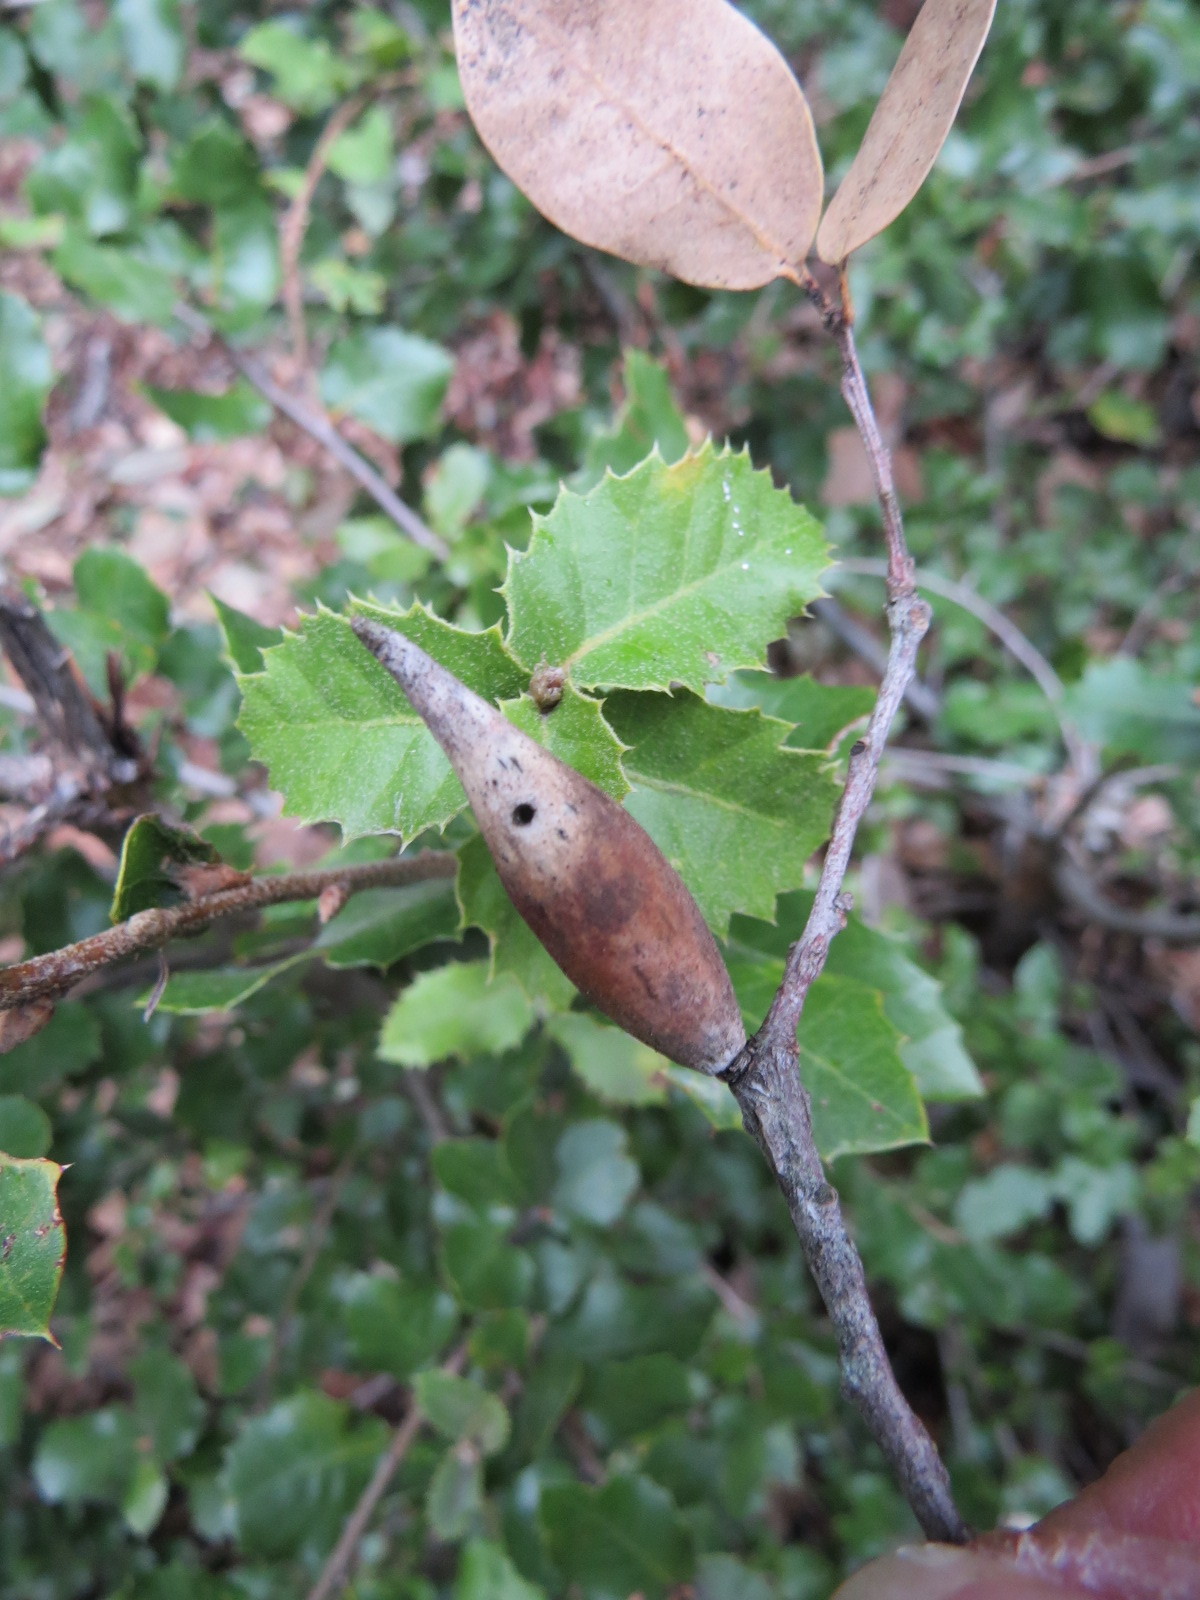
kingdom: Animalia
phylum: Arthropoda
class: Insecta
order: Hymenoptera
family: Cynipidae
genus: Heteroecus
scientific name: Heteroecus pacificus
